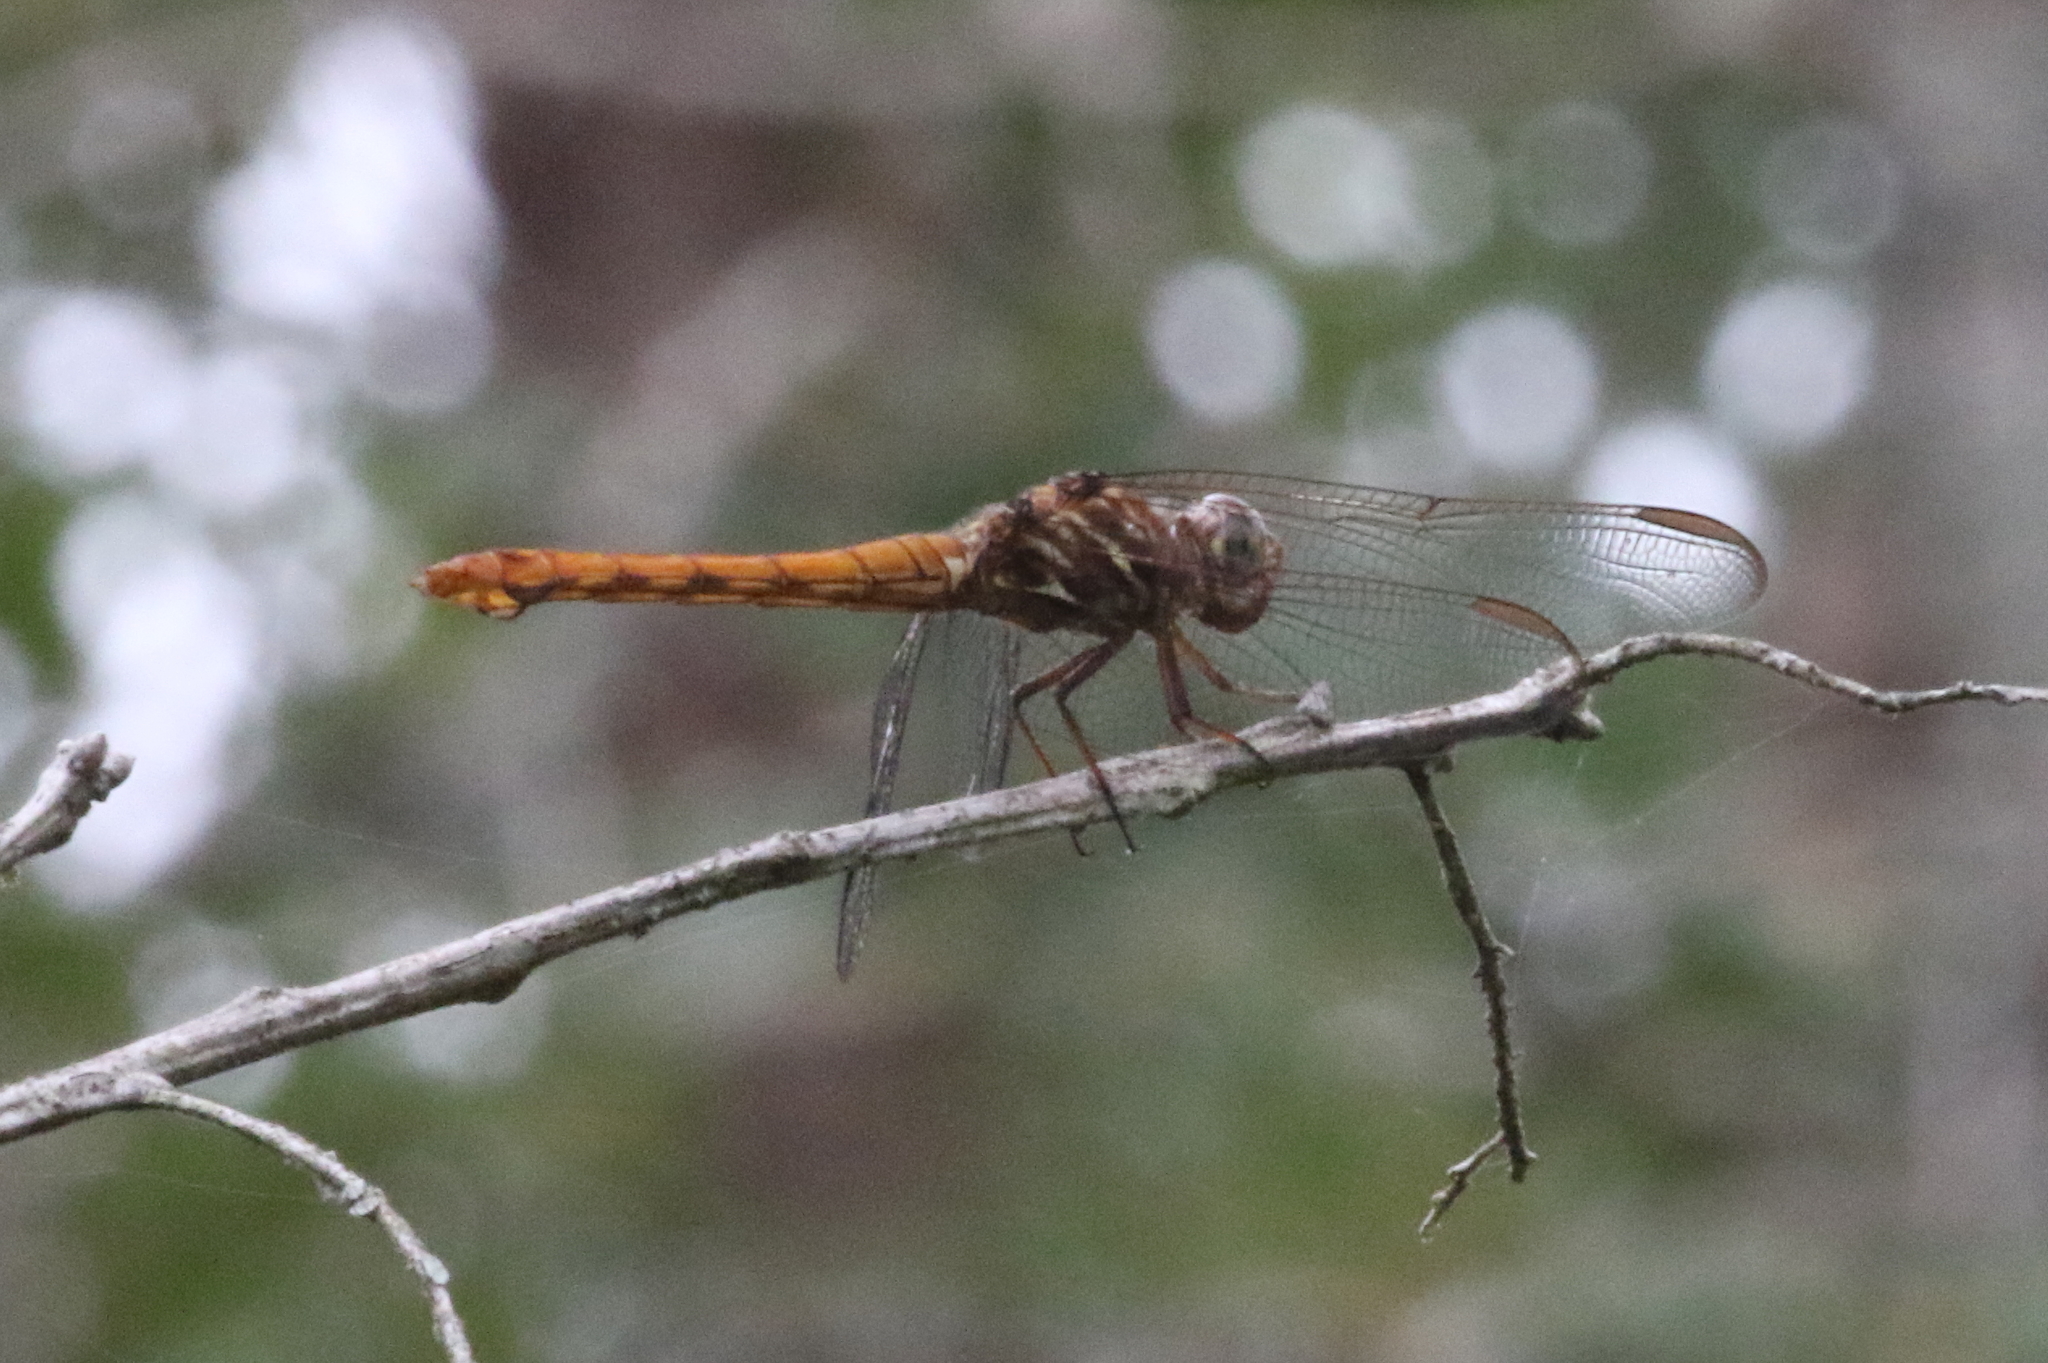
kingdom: Animalia
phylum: Arthropoda
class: Insecta
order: Odonata
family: Libellulidae
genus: Orthemis
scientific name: Orthemis ferruginea
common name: Roseate skimmer
